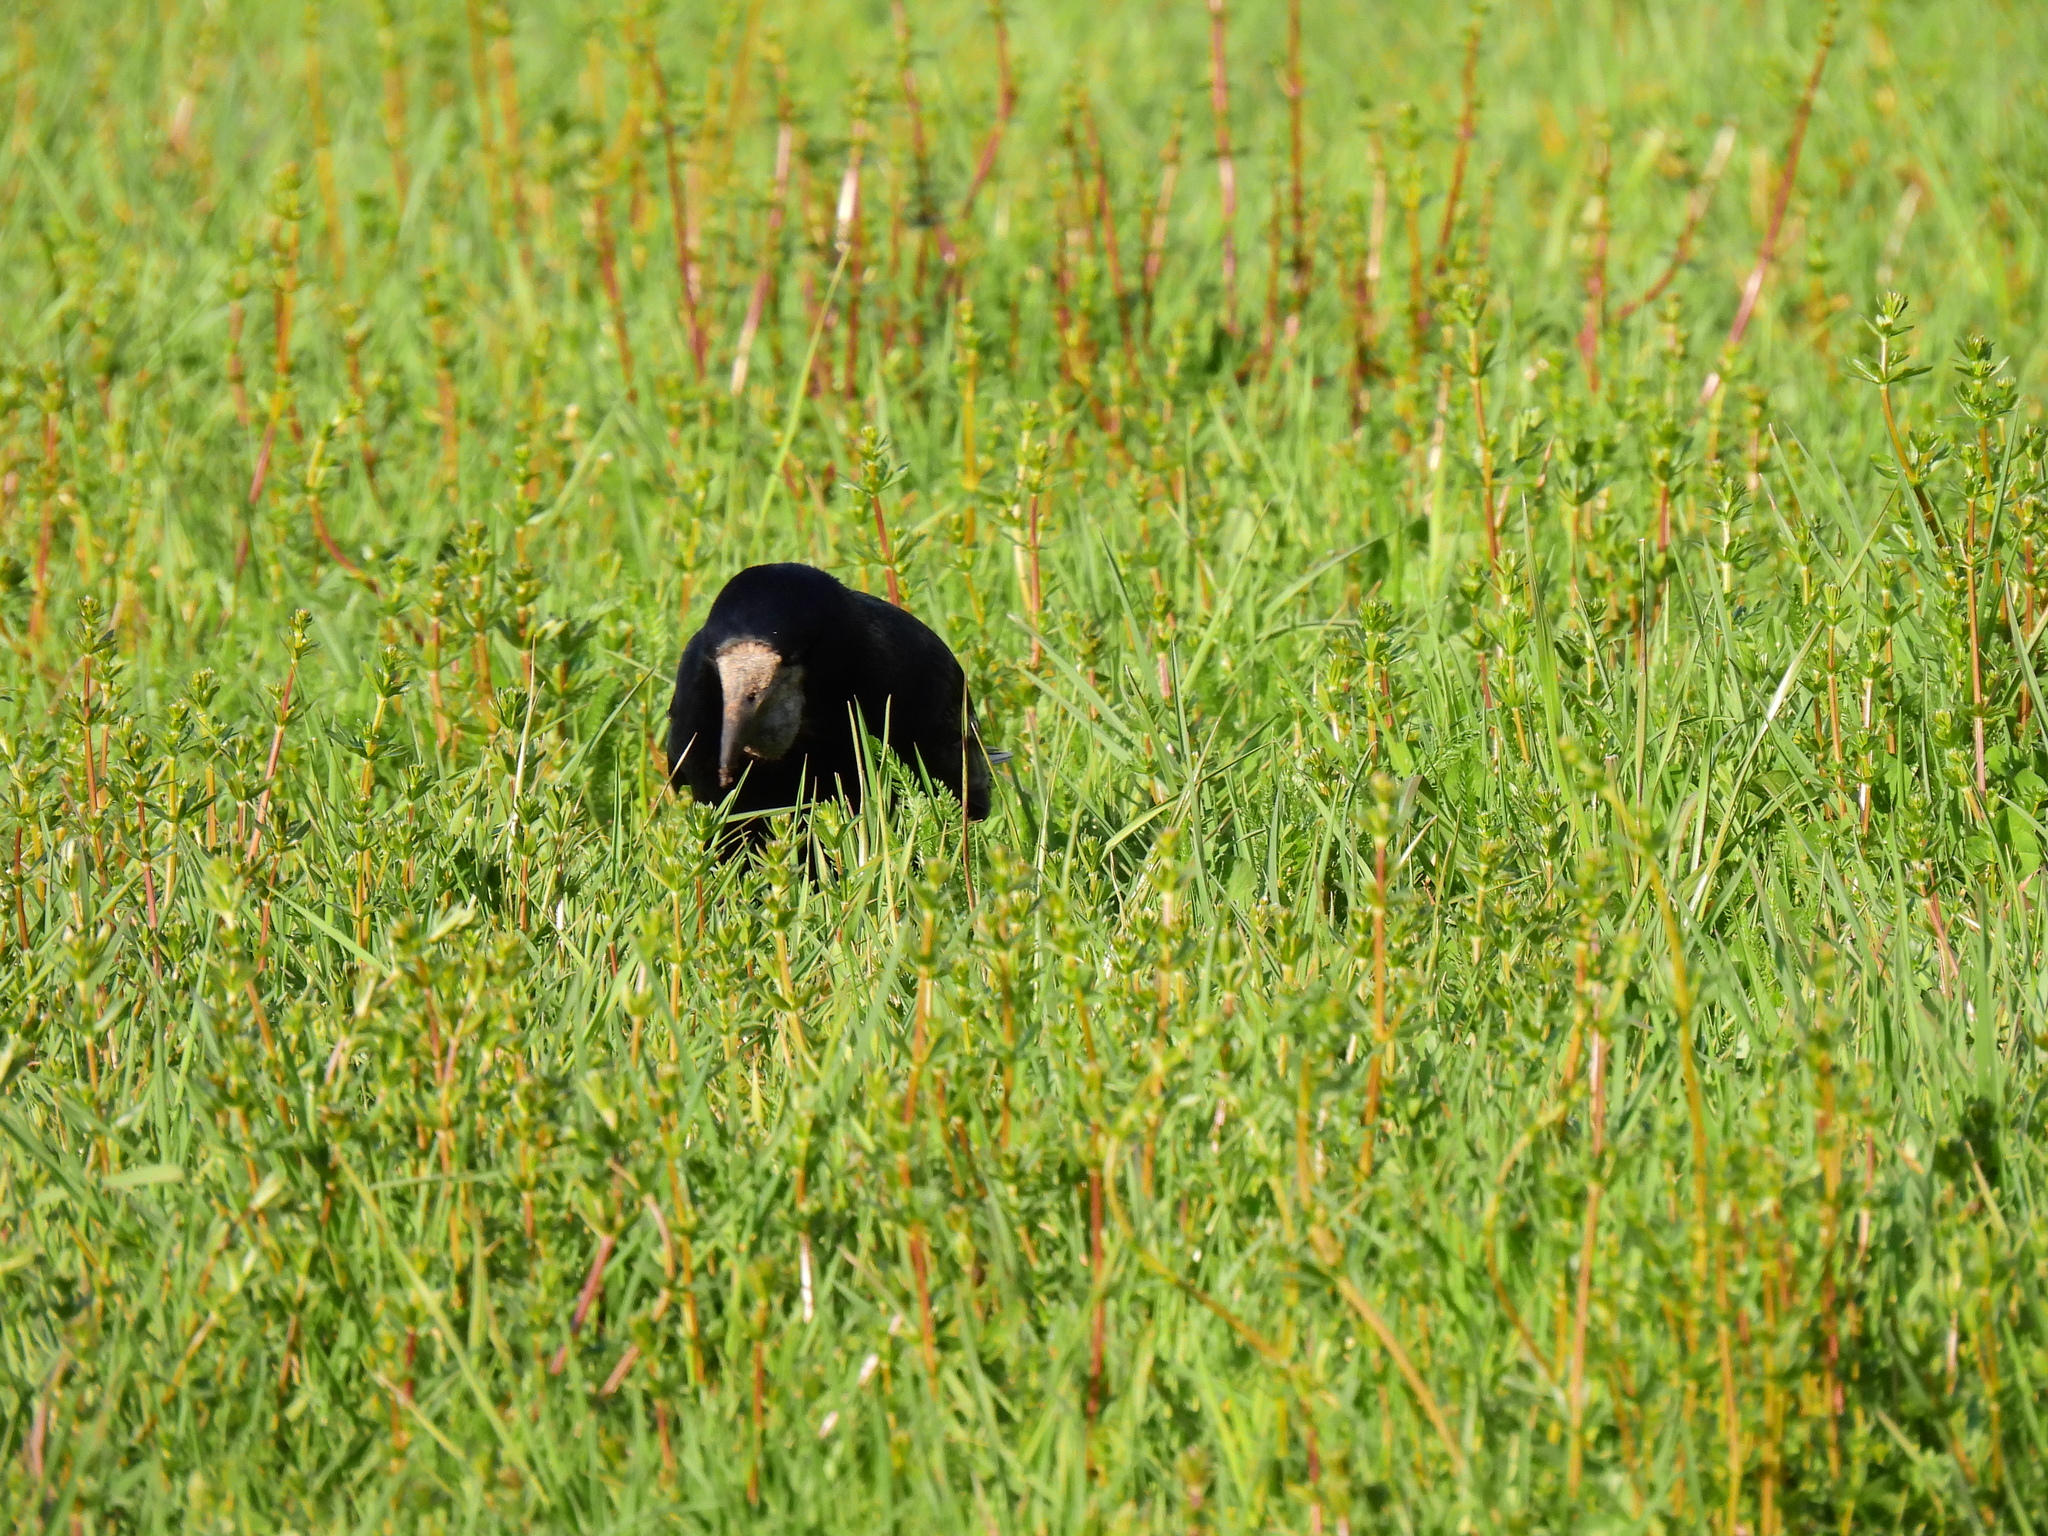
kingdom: Animalia
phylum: Chordata
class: Aves
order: Passeriformes
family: Corvidae
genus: Corvus
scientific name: Corvus frugilegus
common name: Rook
